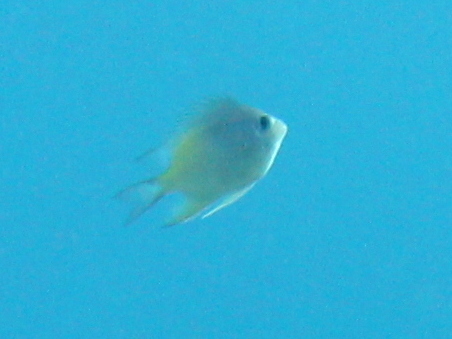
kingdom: Animalia
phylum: Chordata
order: Perciformes
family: Pomacentridae
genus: Amblyglyphidodon
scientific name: Amblyglyphidodon flavilatus
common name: Yellowfin damsel
